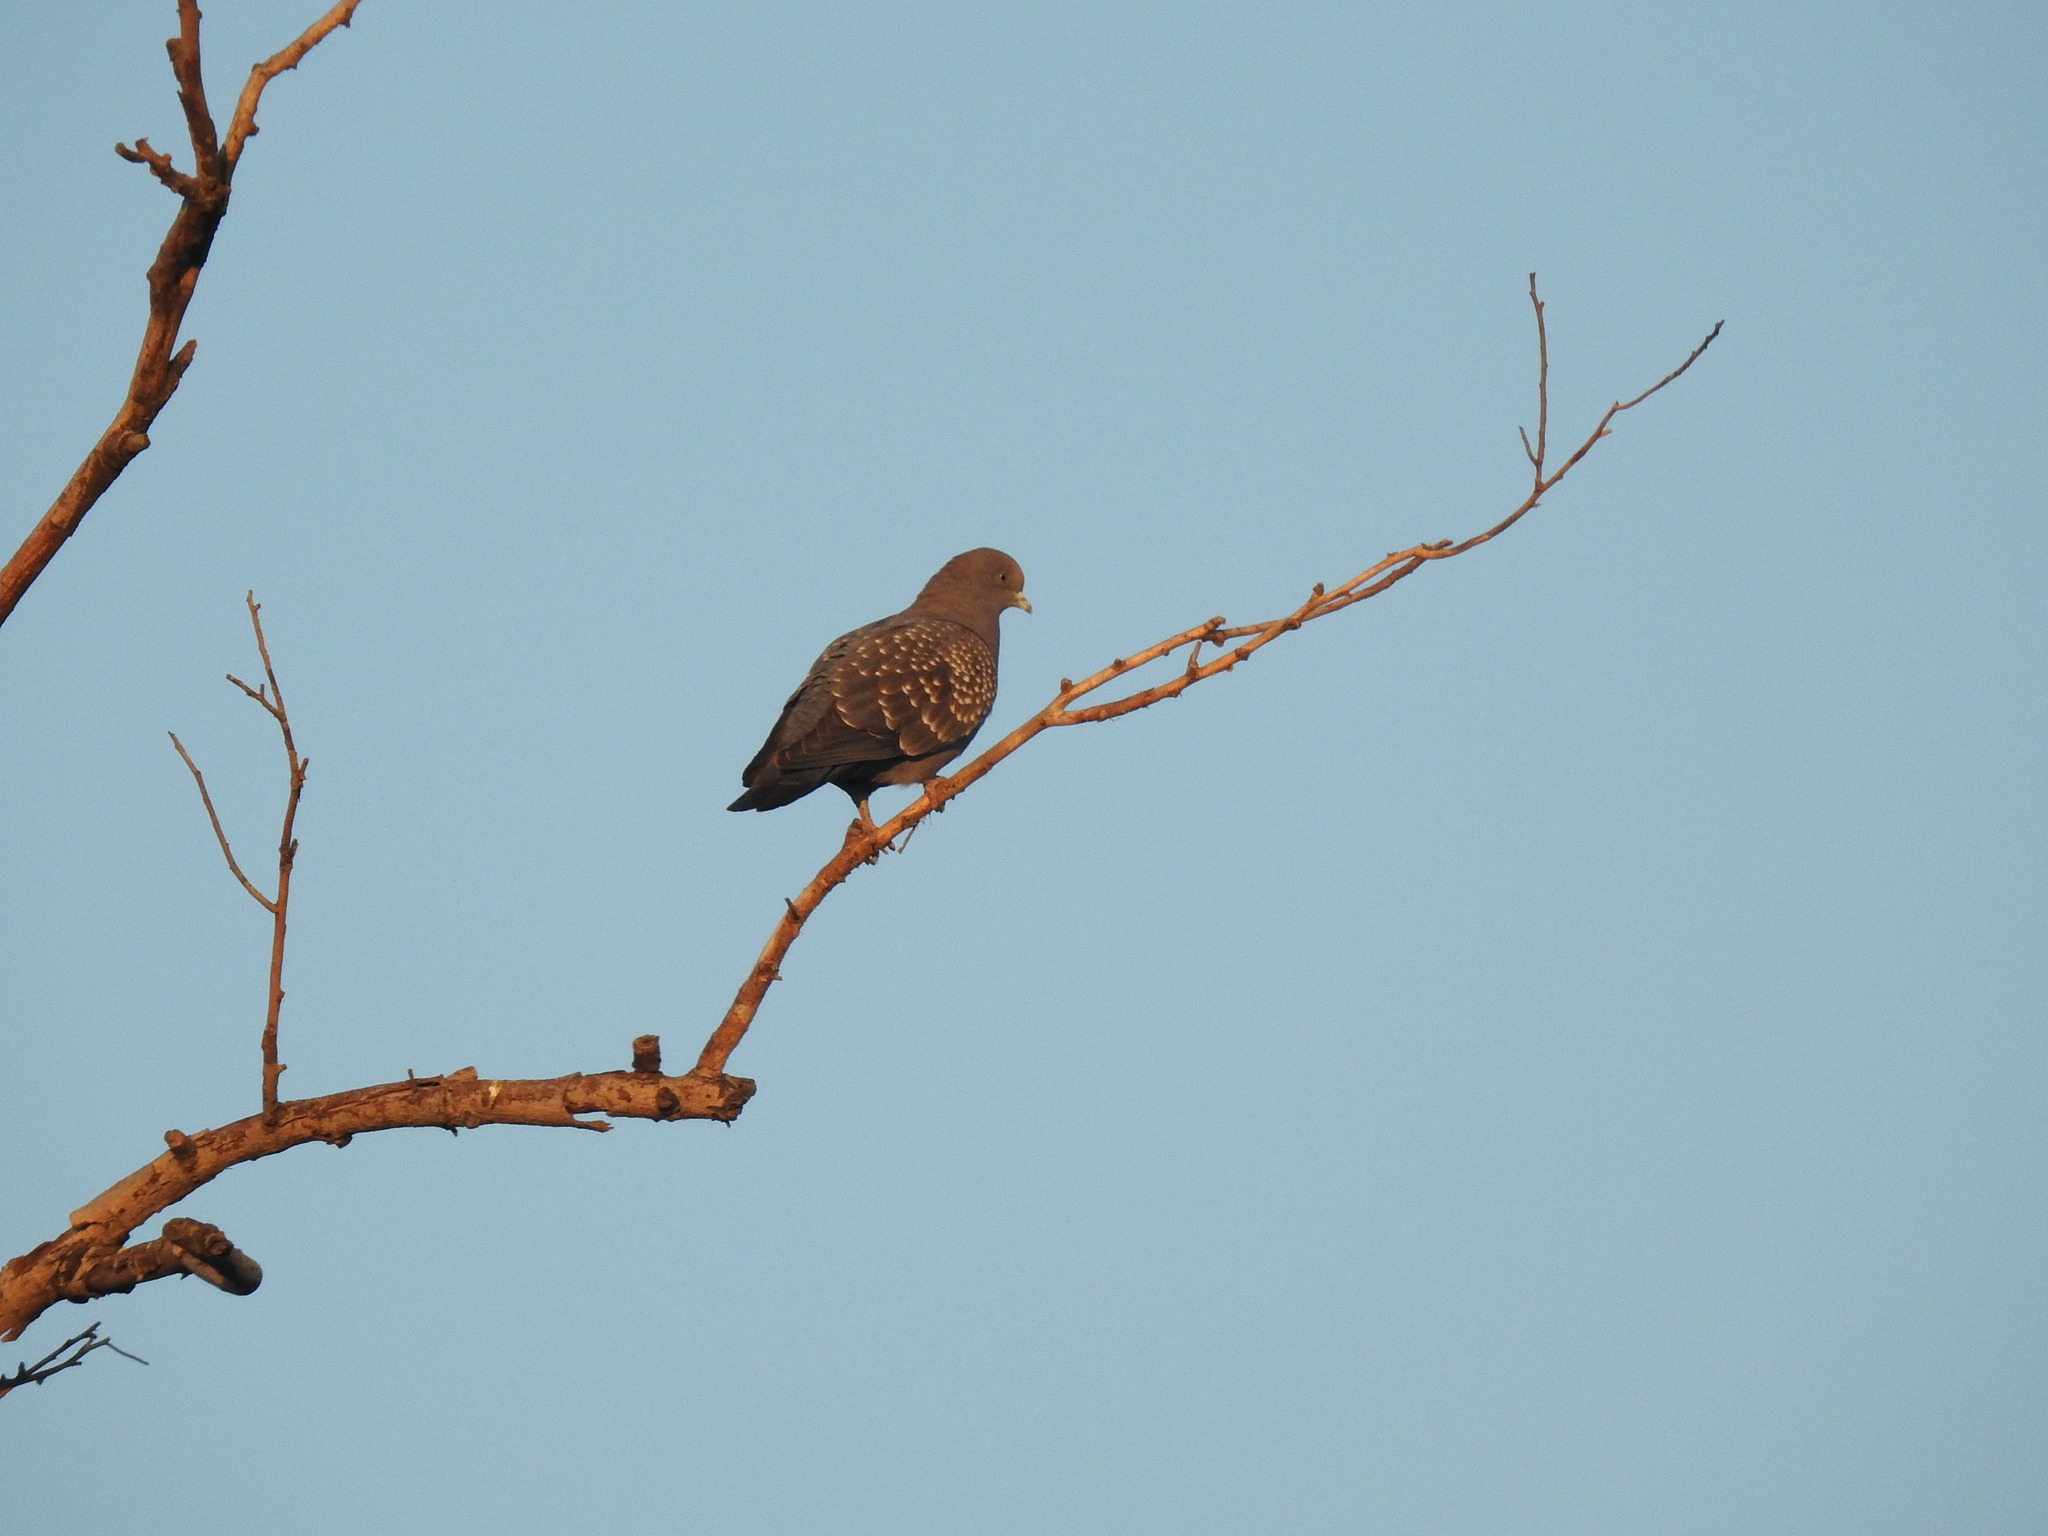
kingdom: Animalia
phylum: Chordata
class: Aves
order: Columbiformes
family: Columbidae
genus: Patagioenas
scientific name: Patagioenas maculosa
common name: Spot-winged pigeon
